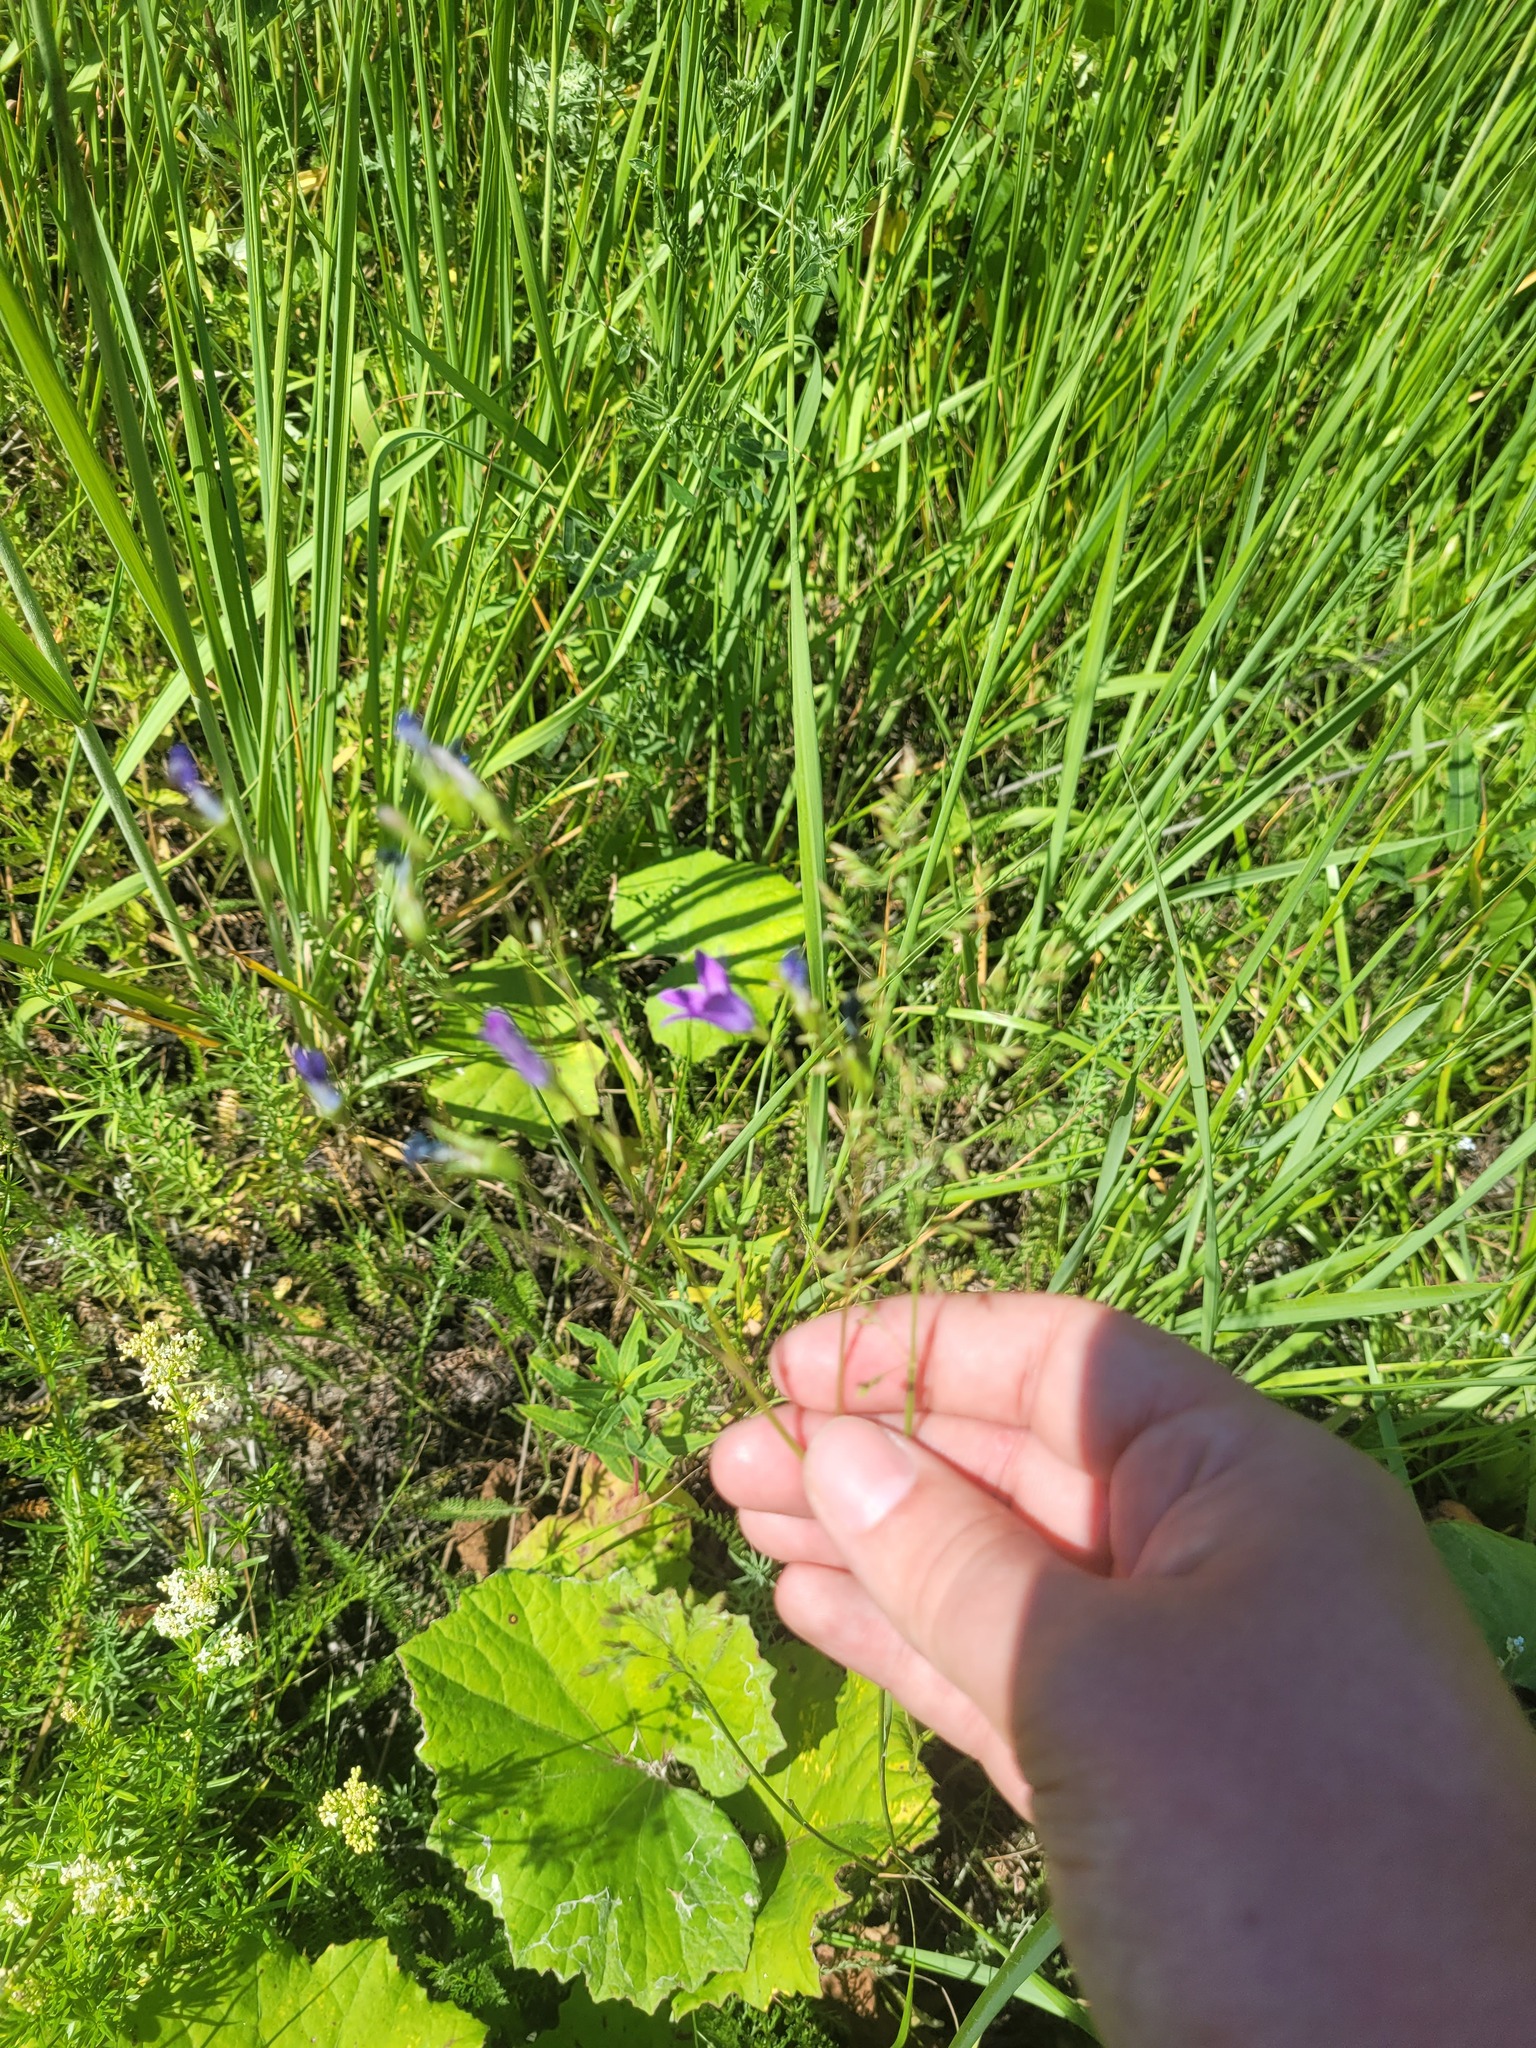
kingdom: Plantae
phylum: Tracheophyta
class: Magnoliopsida
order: Asterales
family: Campanulaceae
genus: Campanula
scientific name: Campanula patula
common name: Spreading bellflower
